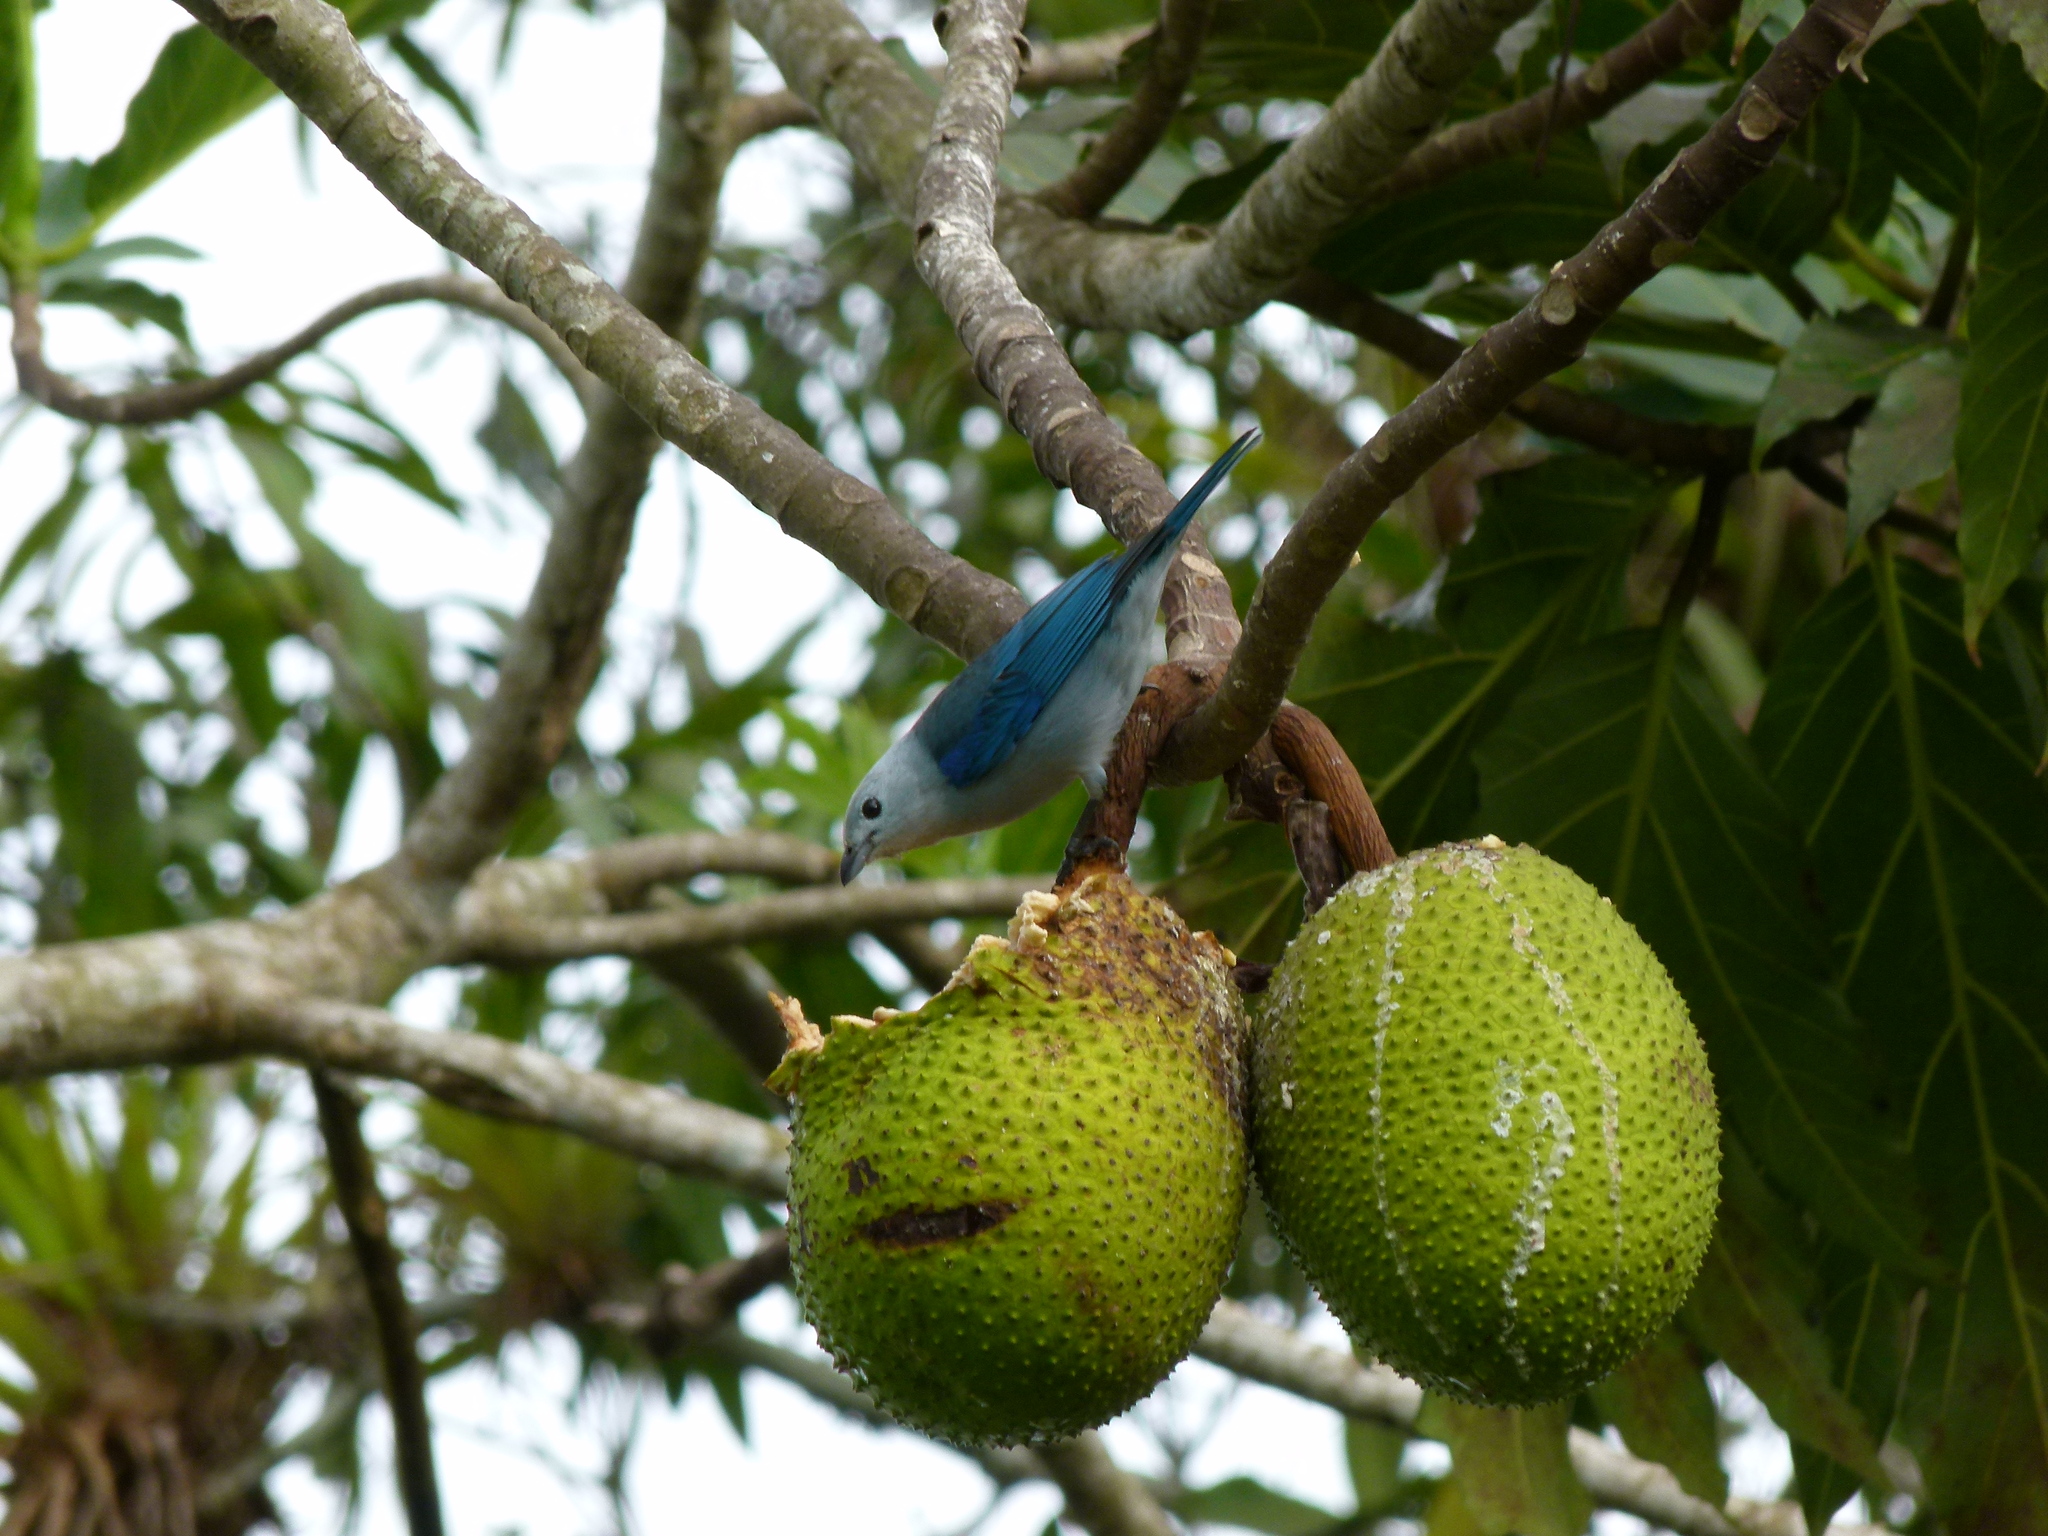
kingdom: Plantae
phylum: Tracheophyta
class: Magnoliopsida
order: Rosales
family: Moraceae
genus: Artocarpus
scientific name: Artocarpus altilis
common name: Breadfruit
